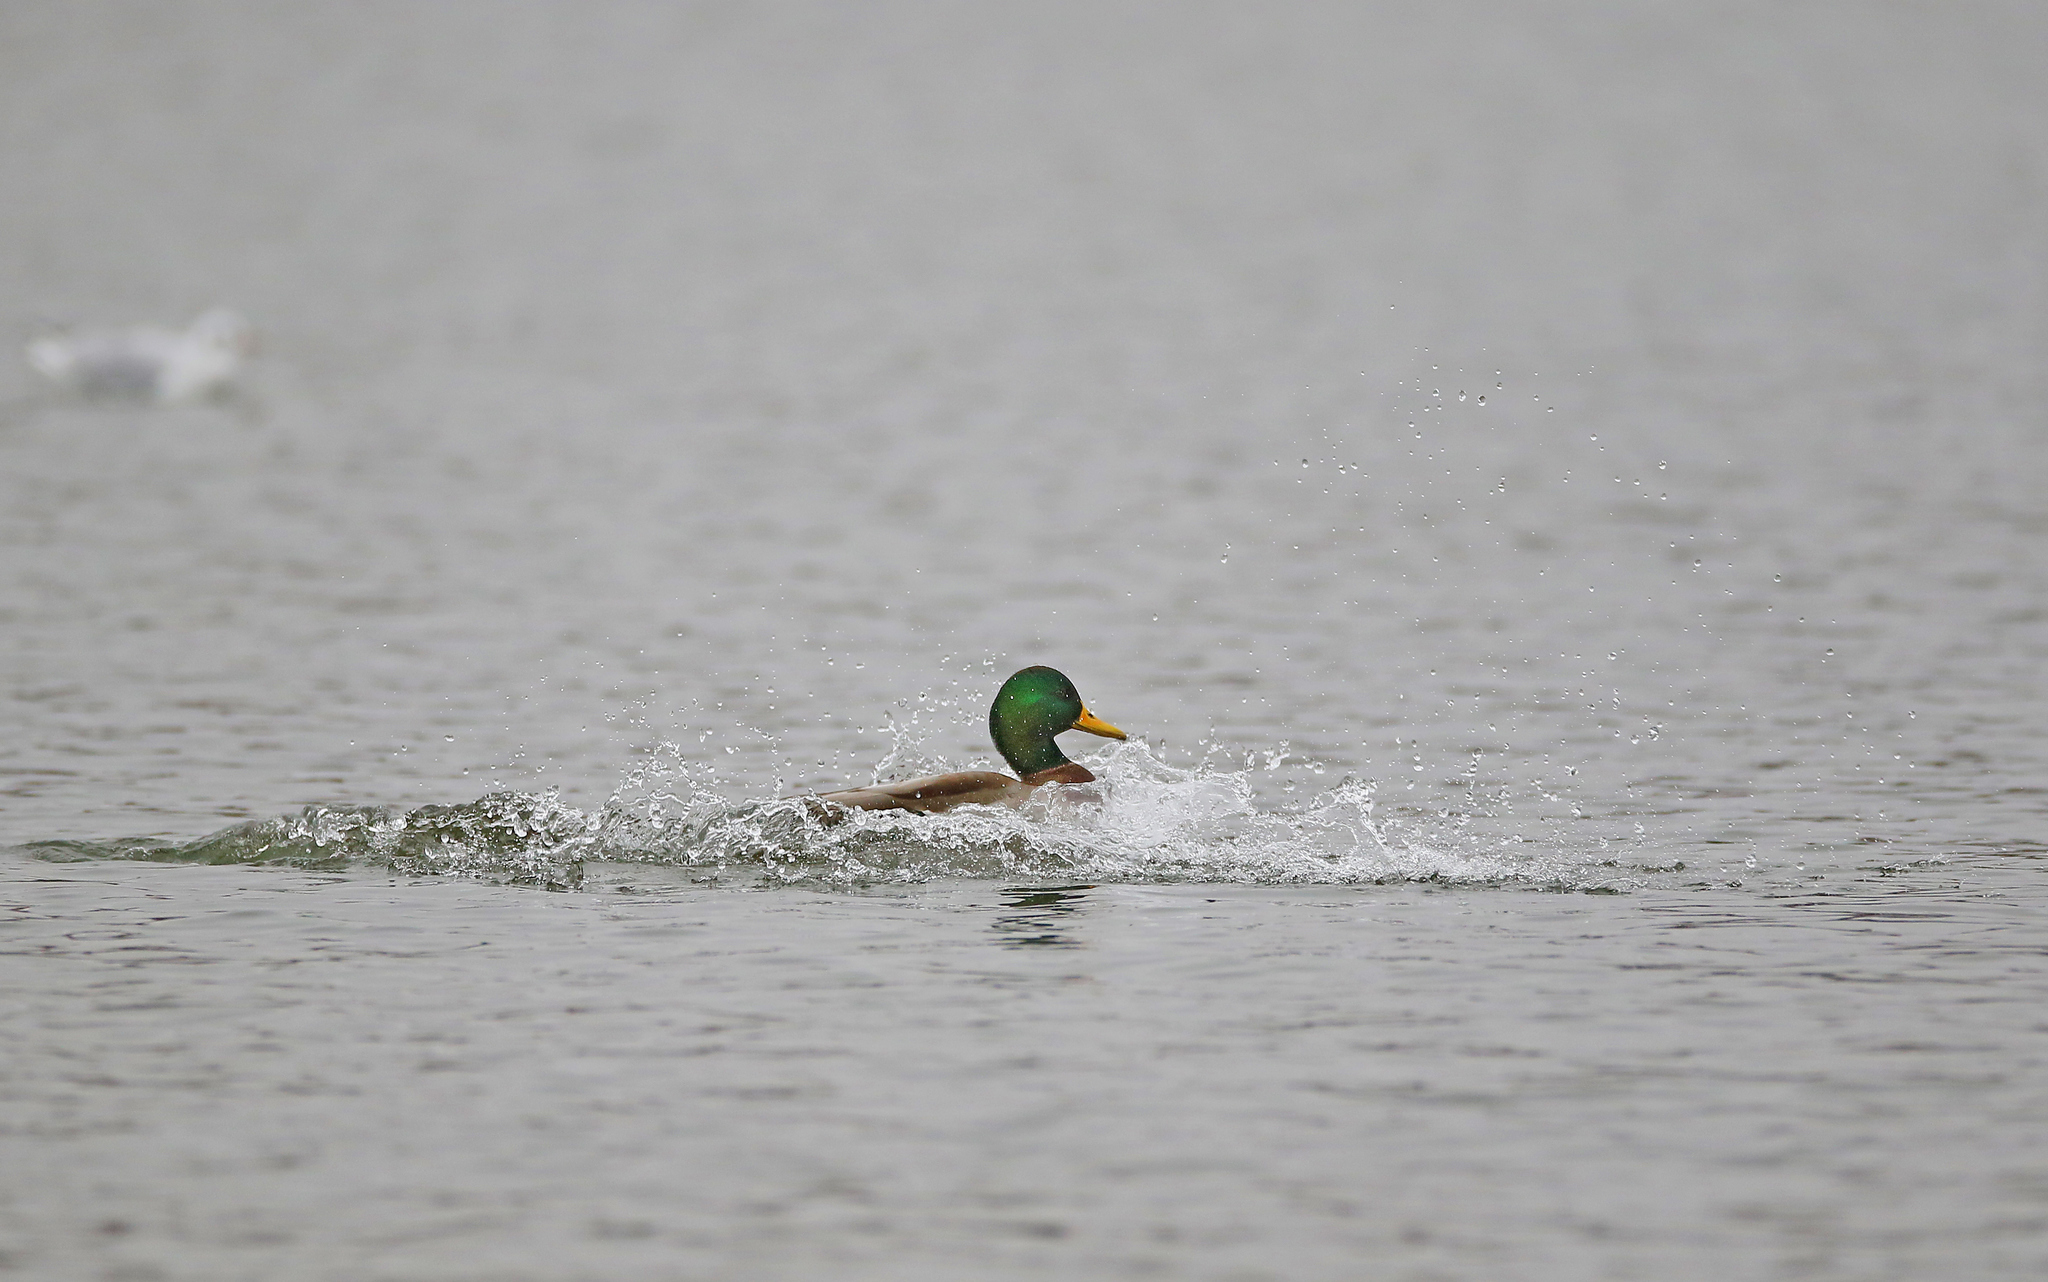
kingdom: Animalia
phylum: Chordata
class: Aves
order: Anseriformes
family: Anatidae
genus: Anas
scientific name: Anas platyrhynchos
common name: Mallard
